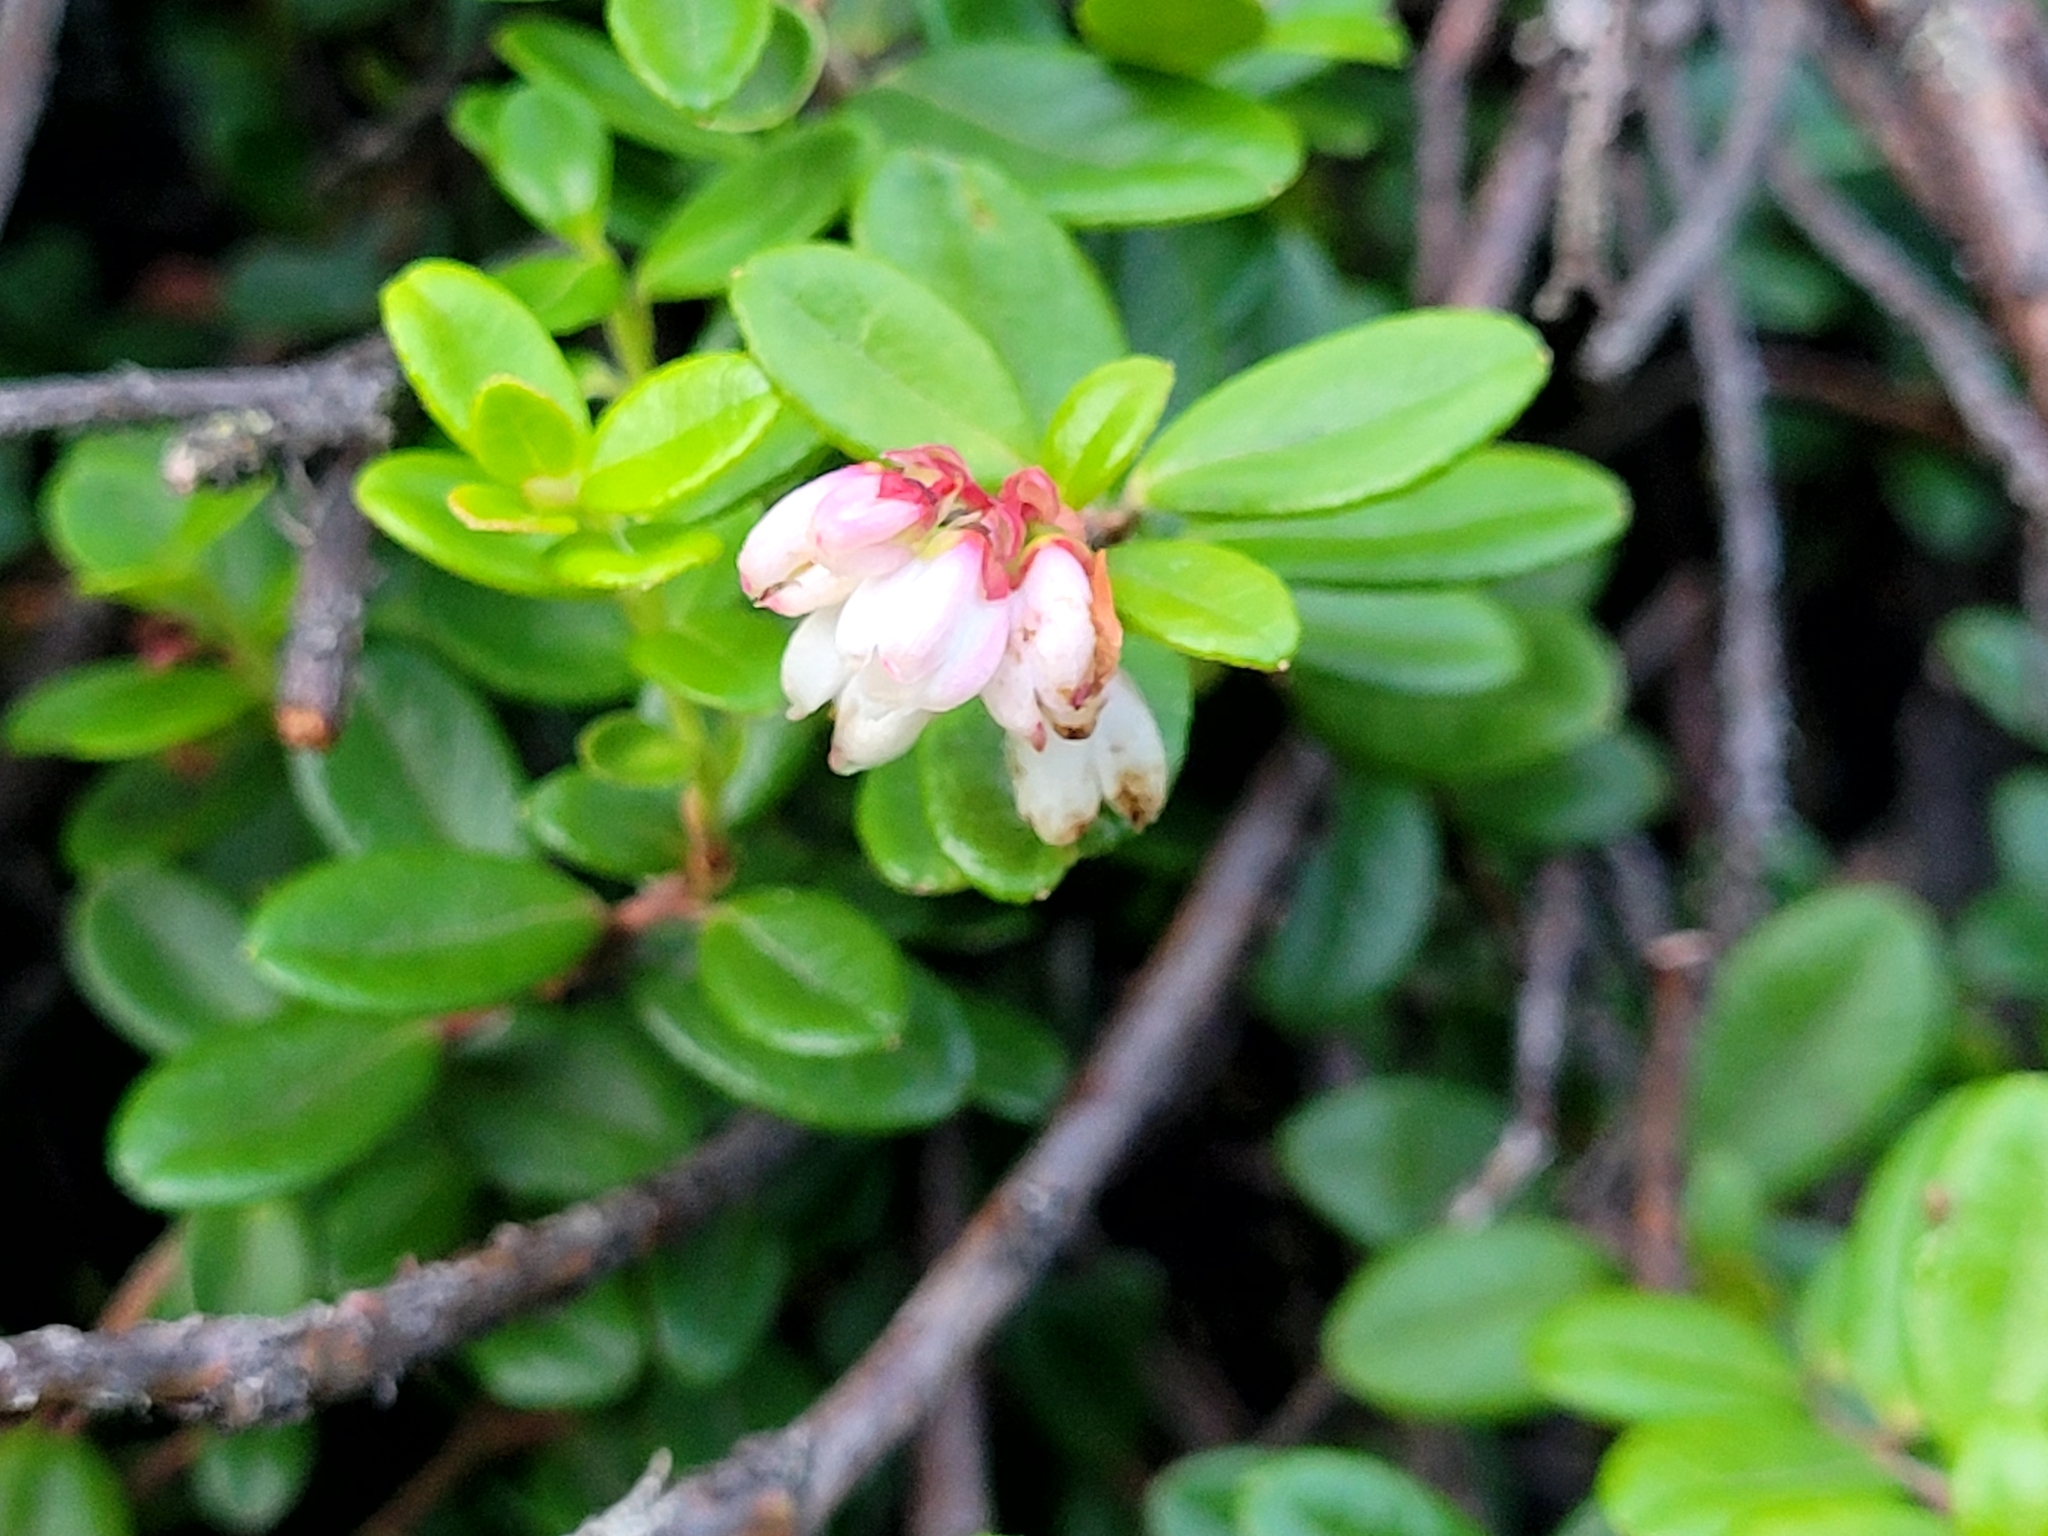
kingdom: Plantae
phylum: Tracheophyta
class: Magnoliopsida
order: Ericales
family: Ericaceae
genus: Vaccinium
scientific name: Vaccinium vitis-idaea
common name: Cowberry
